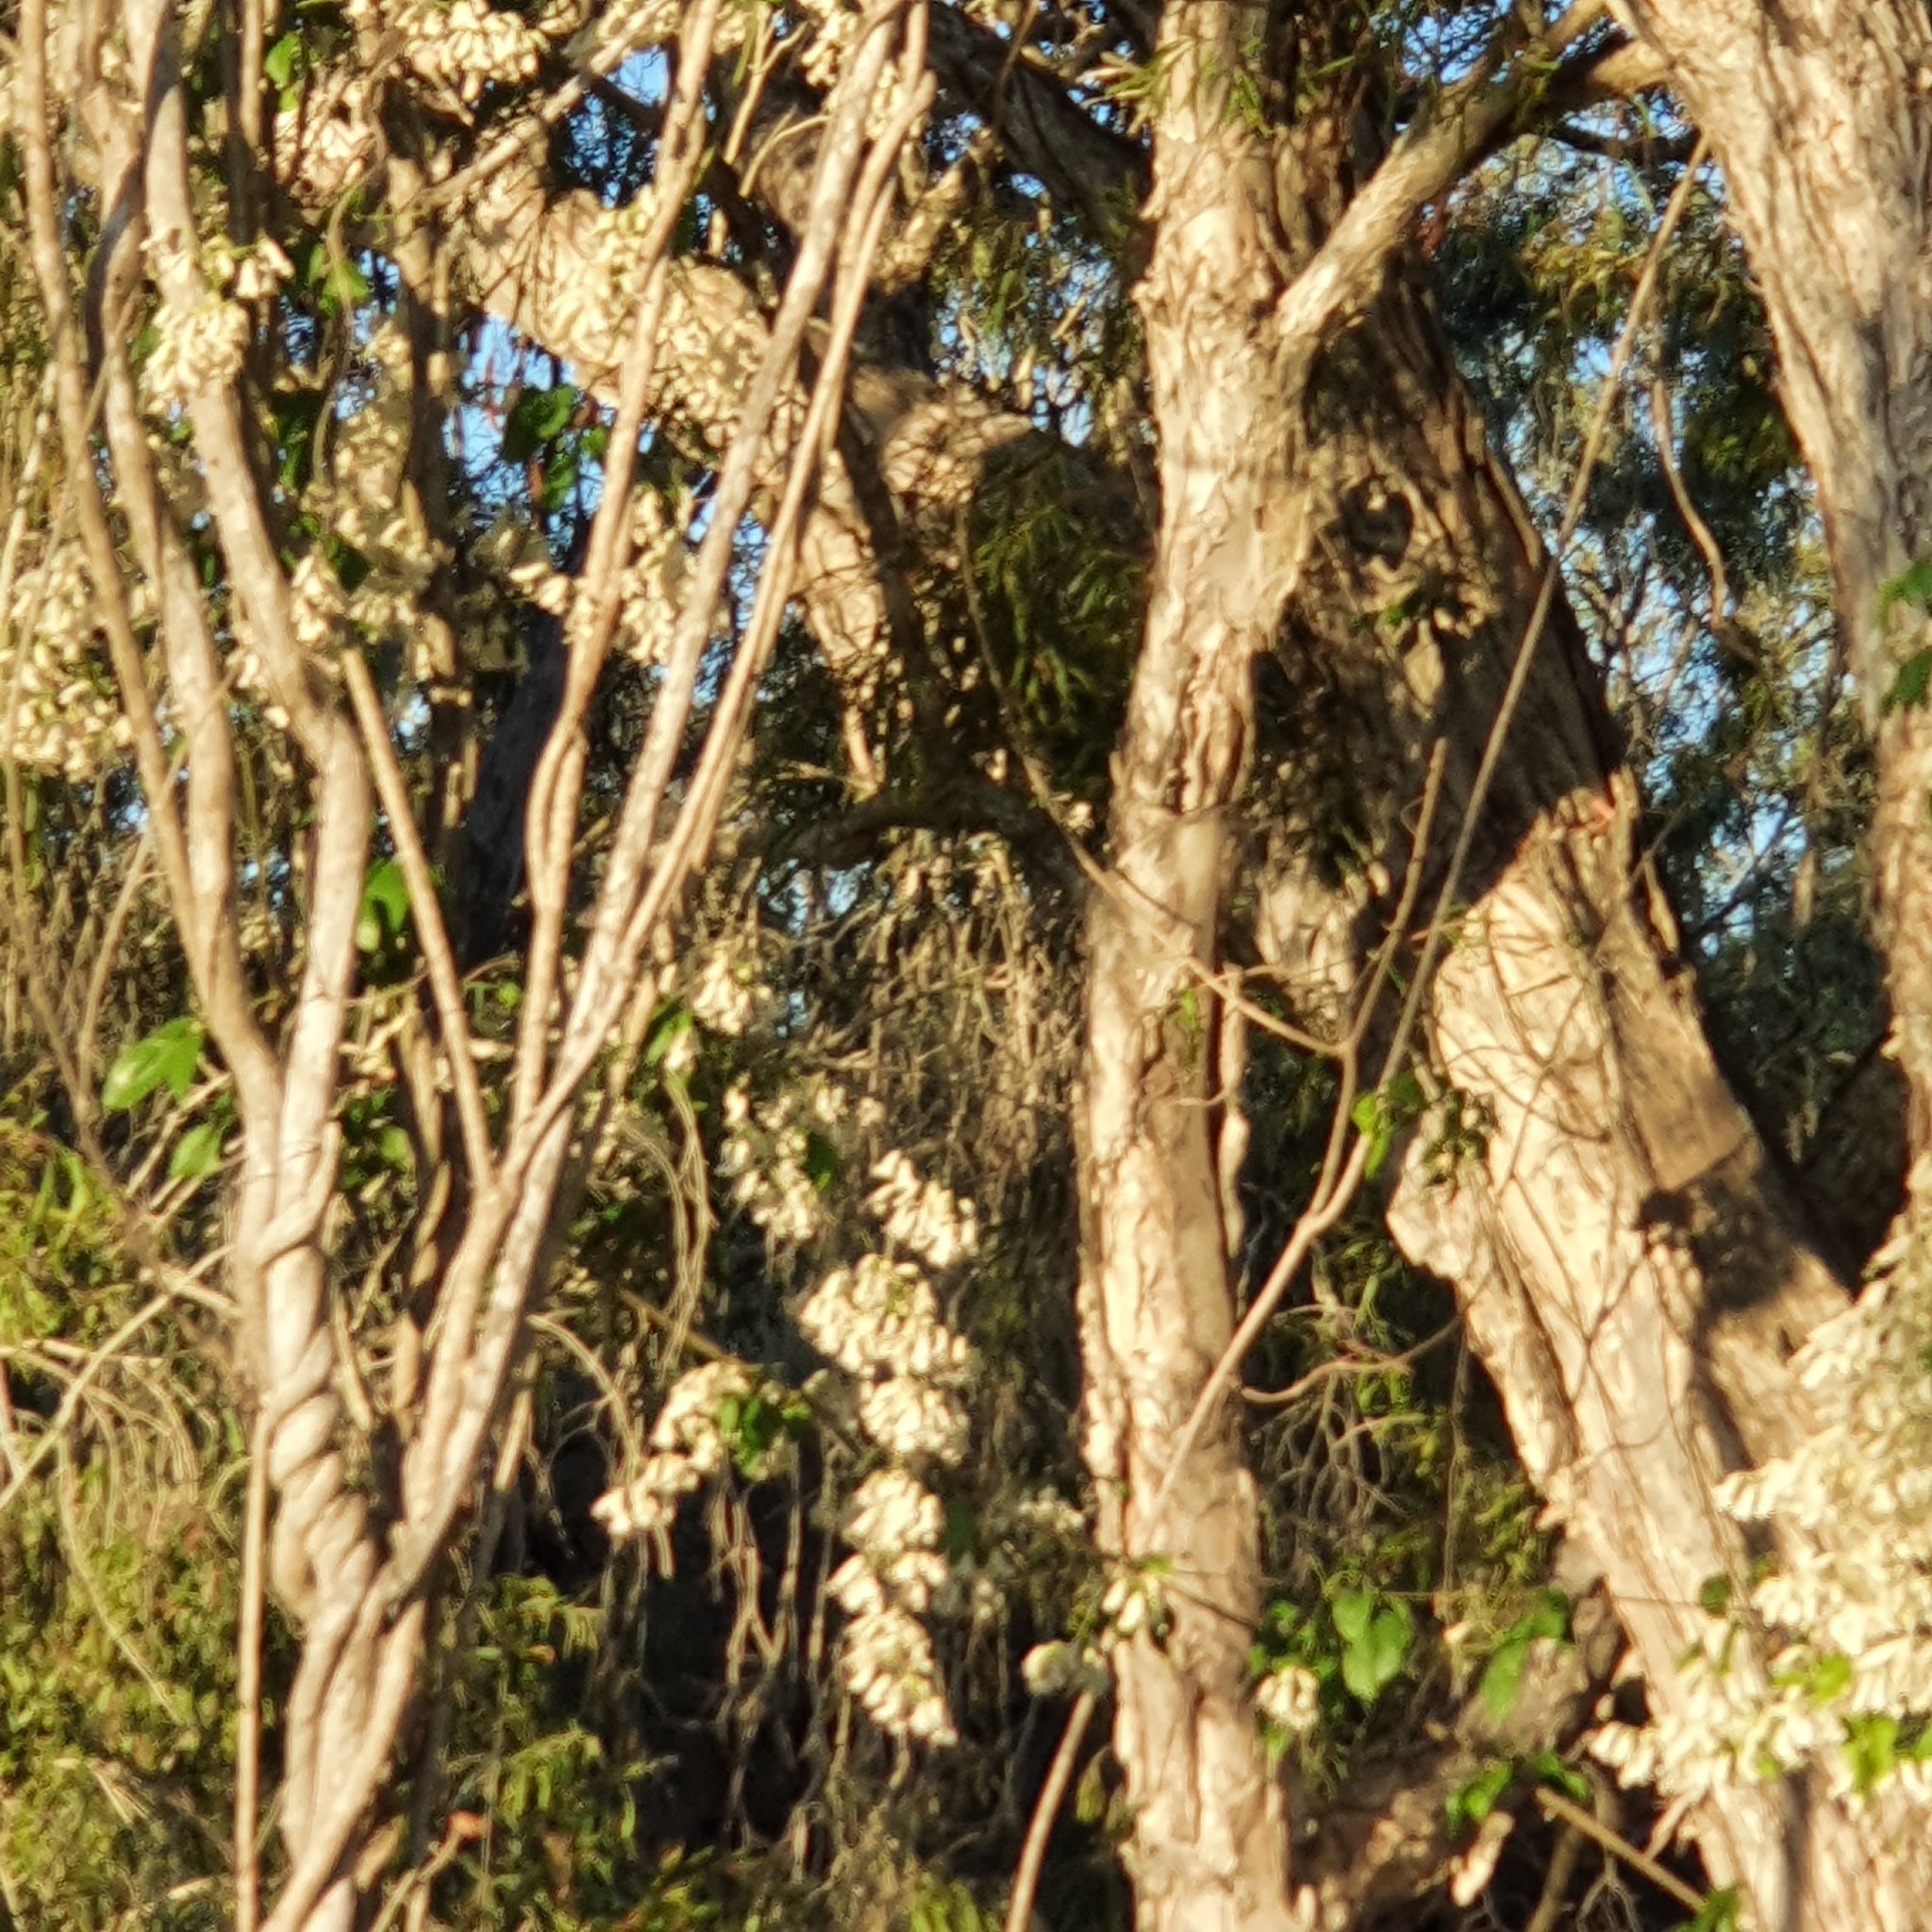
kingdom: Plantae
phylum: Tracheophyta
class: Magnoliopsida
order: Lamiales
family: Bignoniaceae
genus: Pandorea
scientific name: Pandorea pandorana
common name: Wonga-wonga-vine
